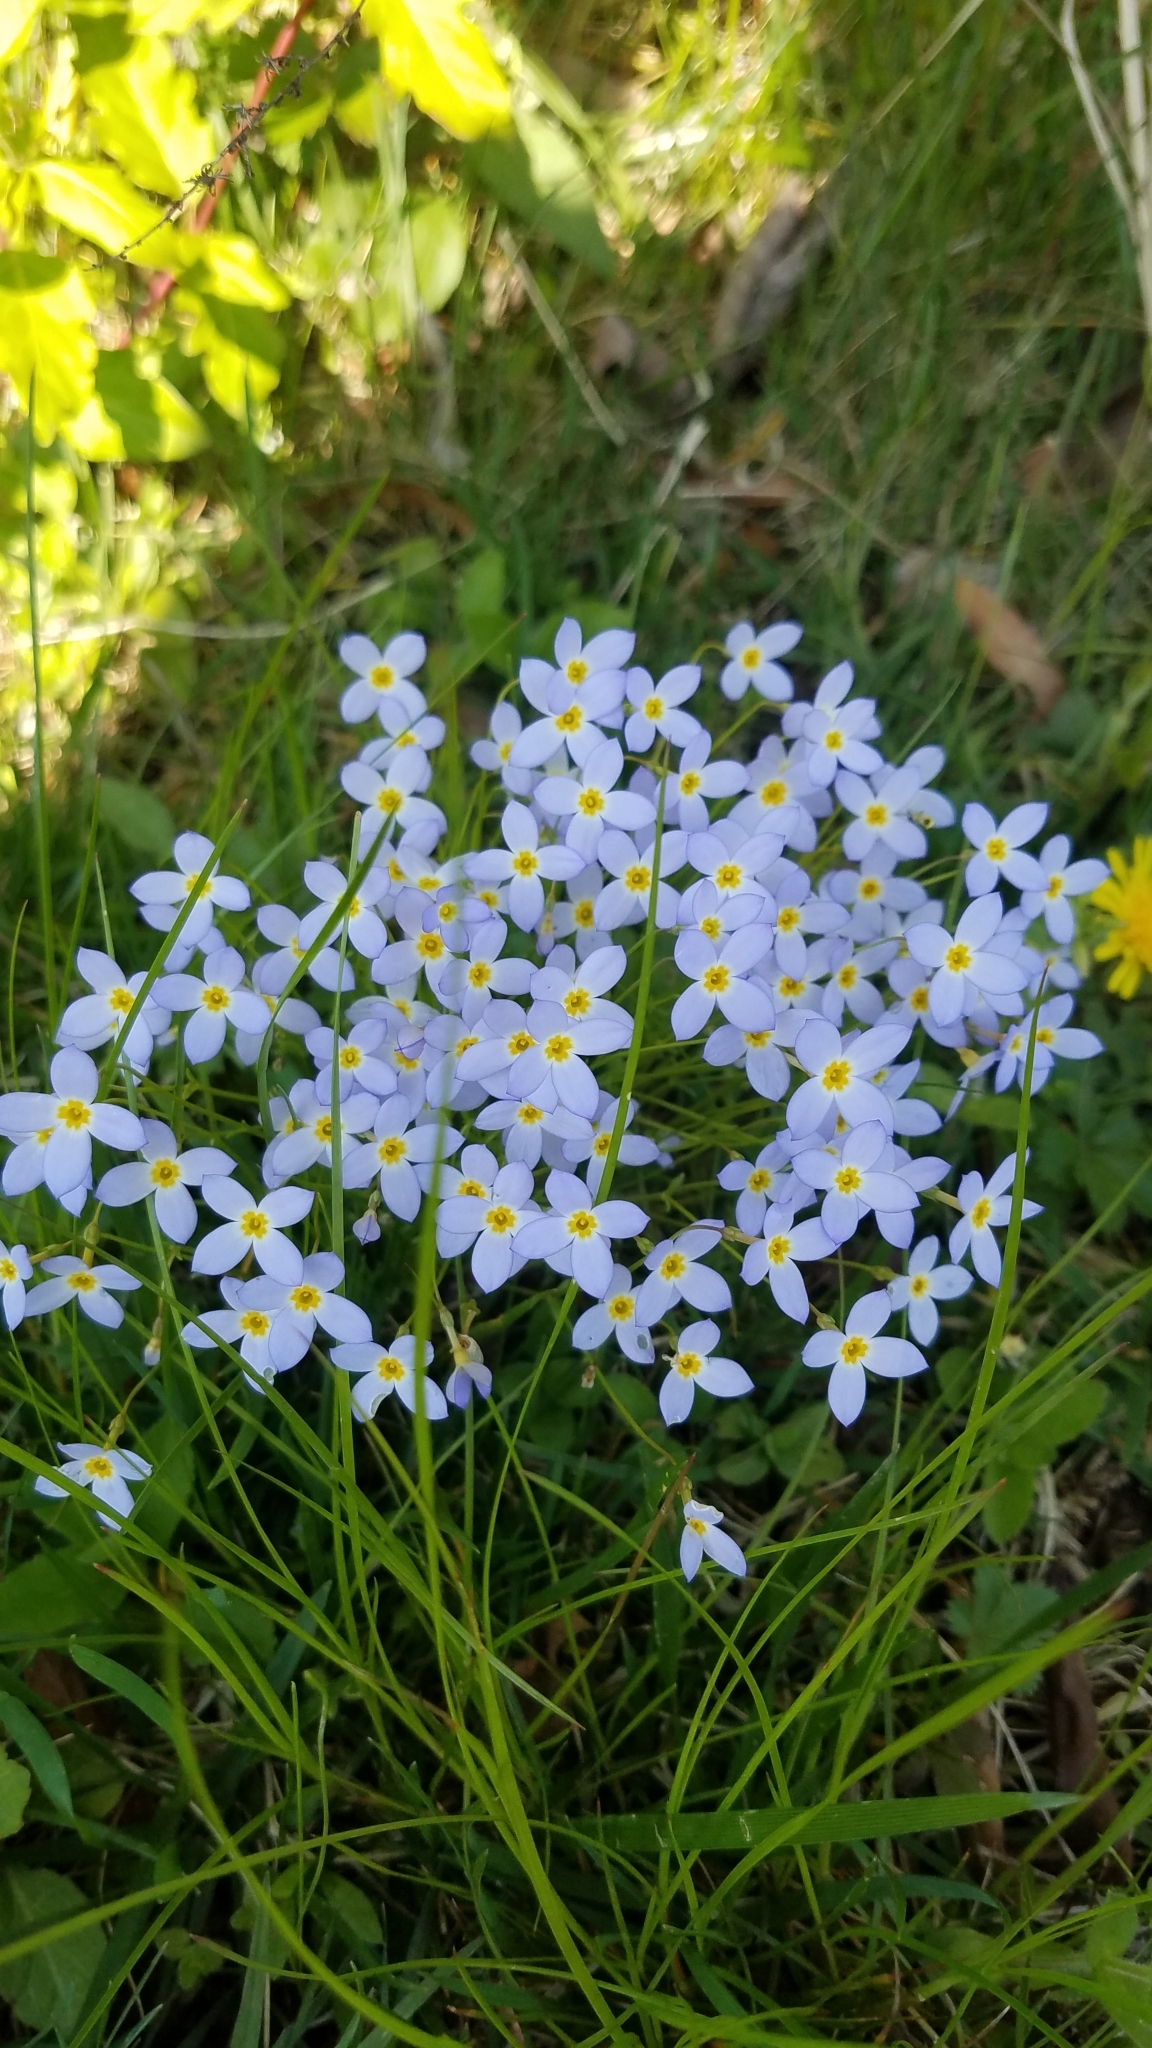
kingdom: Plantae
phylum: Tracheophyta
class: Magnoliopsida
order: Gentianales
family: Rubiaceae
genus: Houstonia
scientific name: Houstonia caerulea
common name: Bluets
